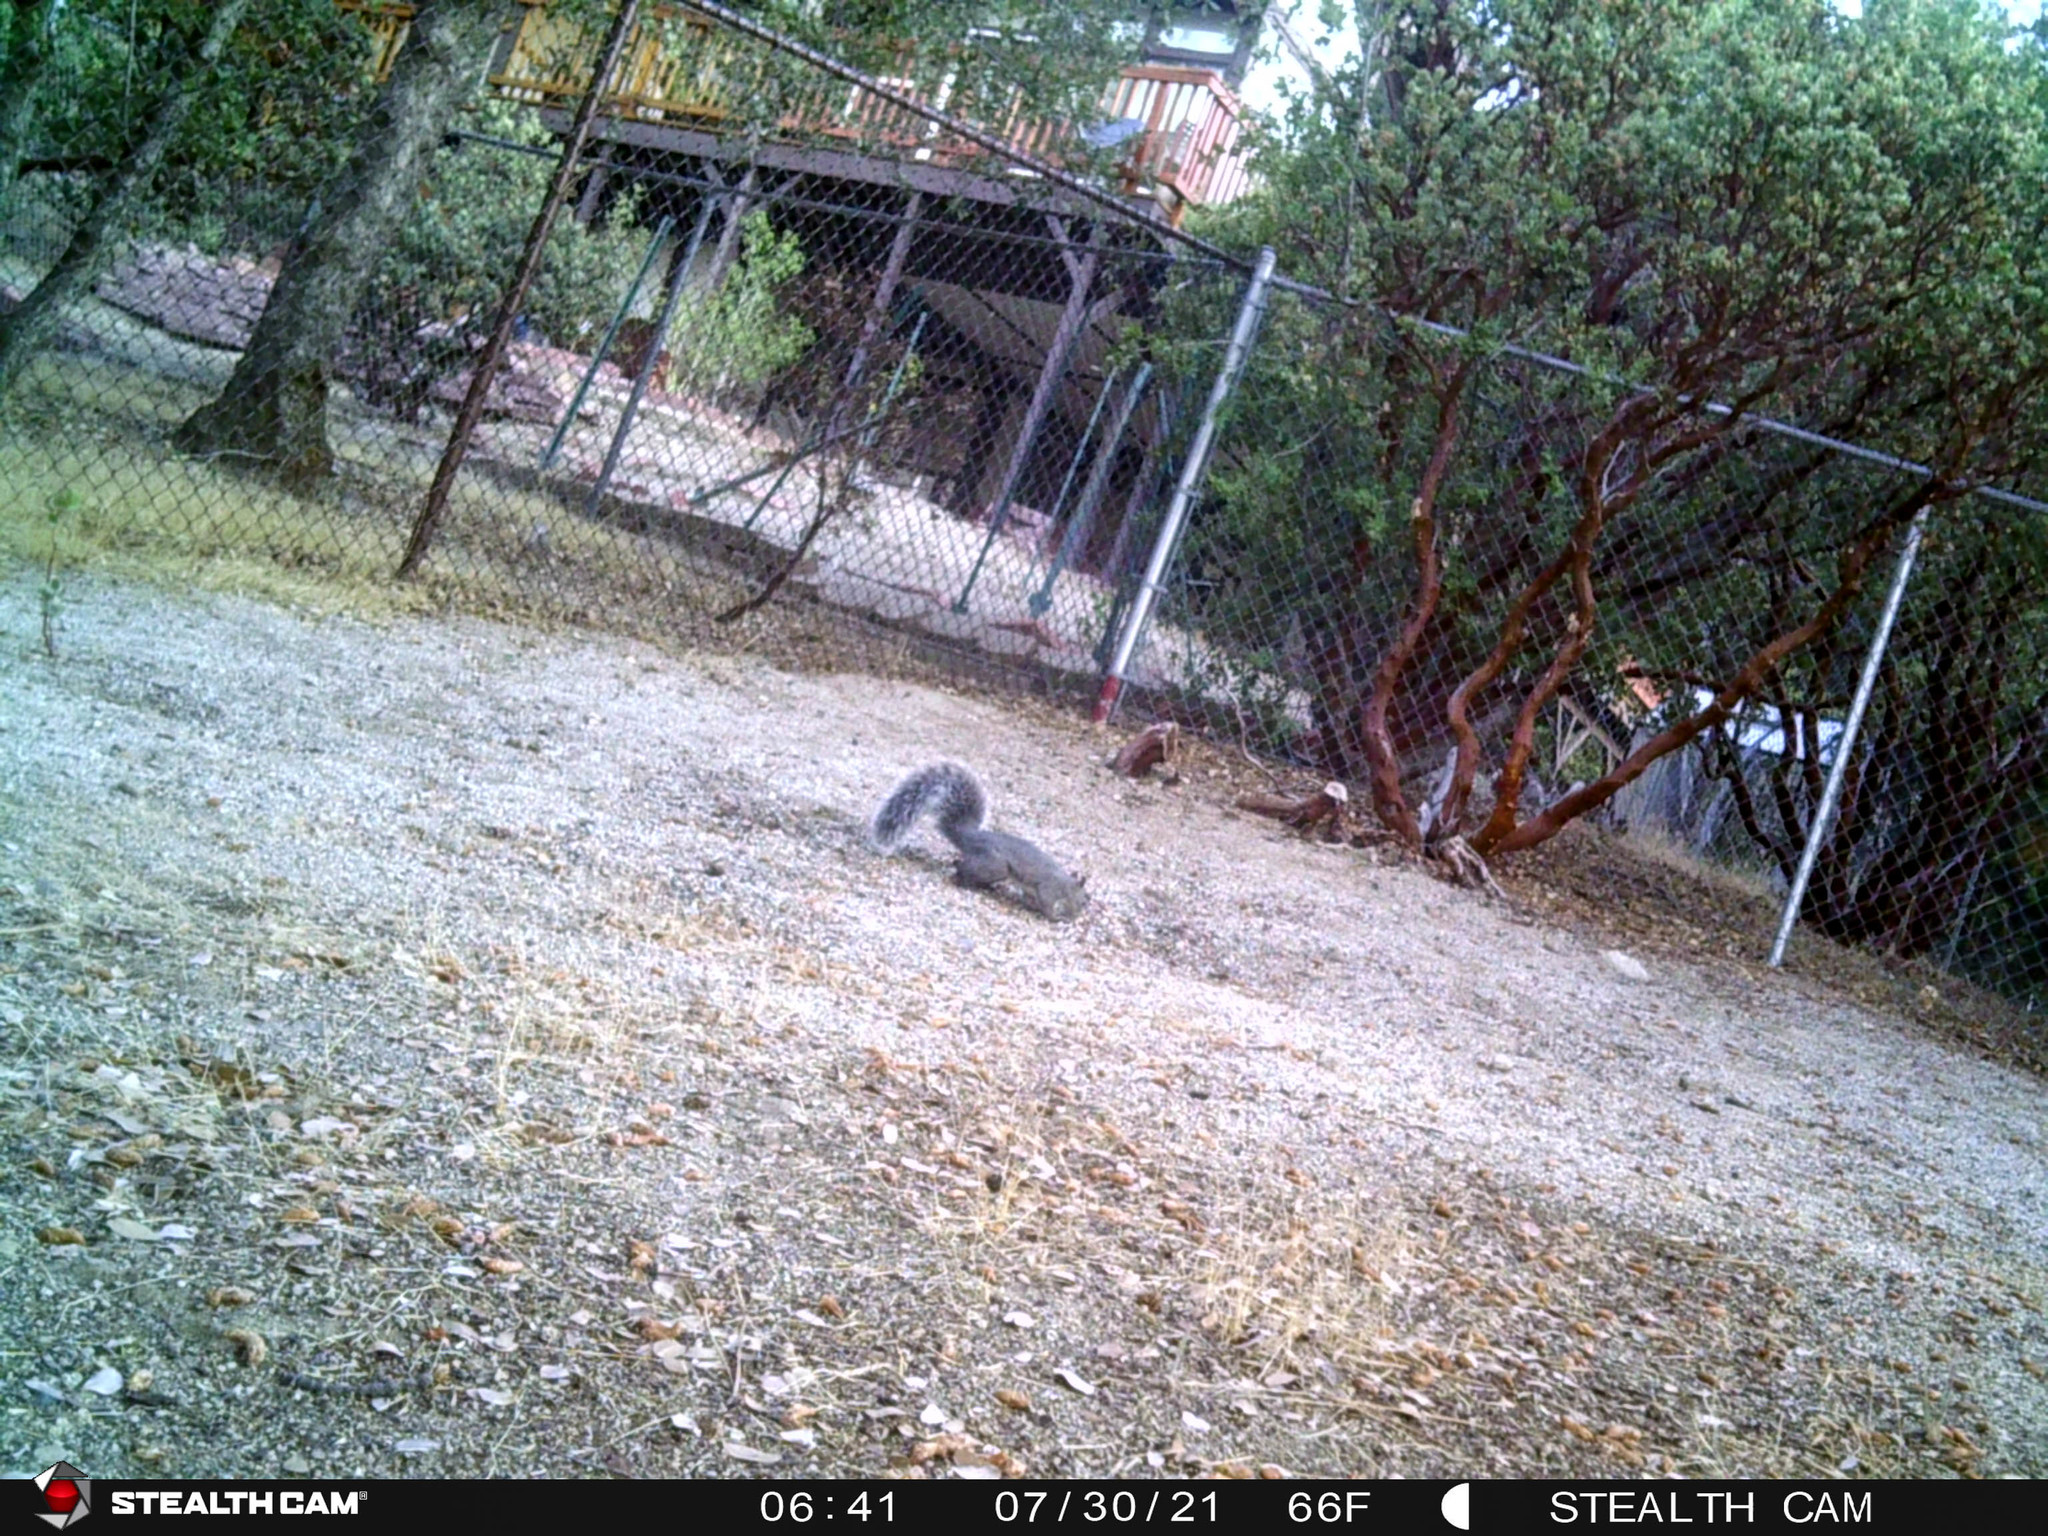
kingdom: Animalia
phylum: Chordata
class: Mammalia
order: Rodentia
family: Sciuridae
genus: Sciurus
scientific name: Sciurus griseus
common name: Western gray squirrel
